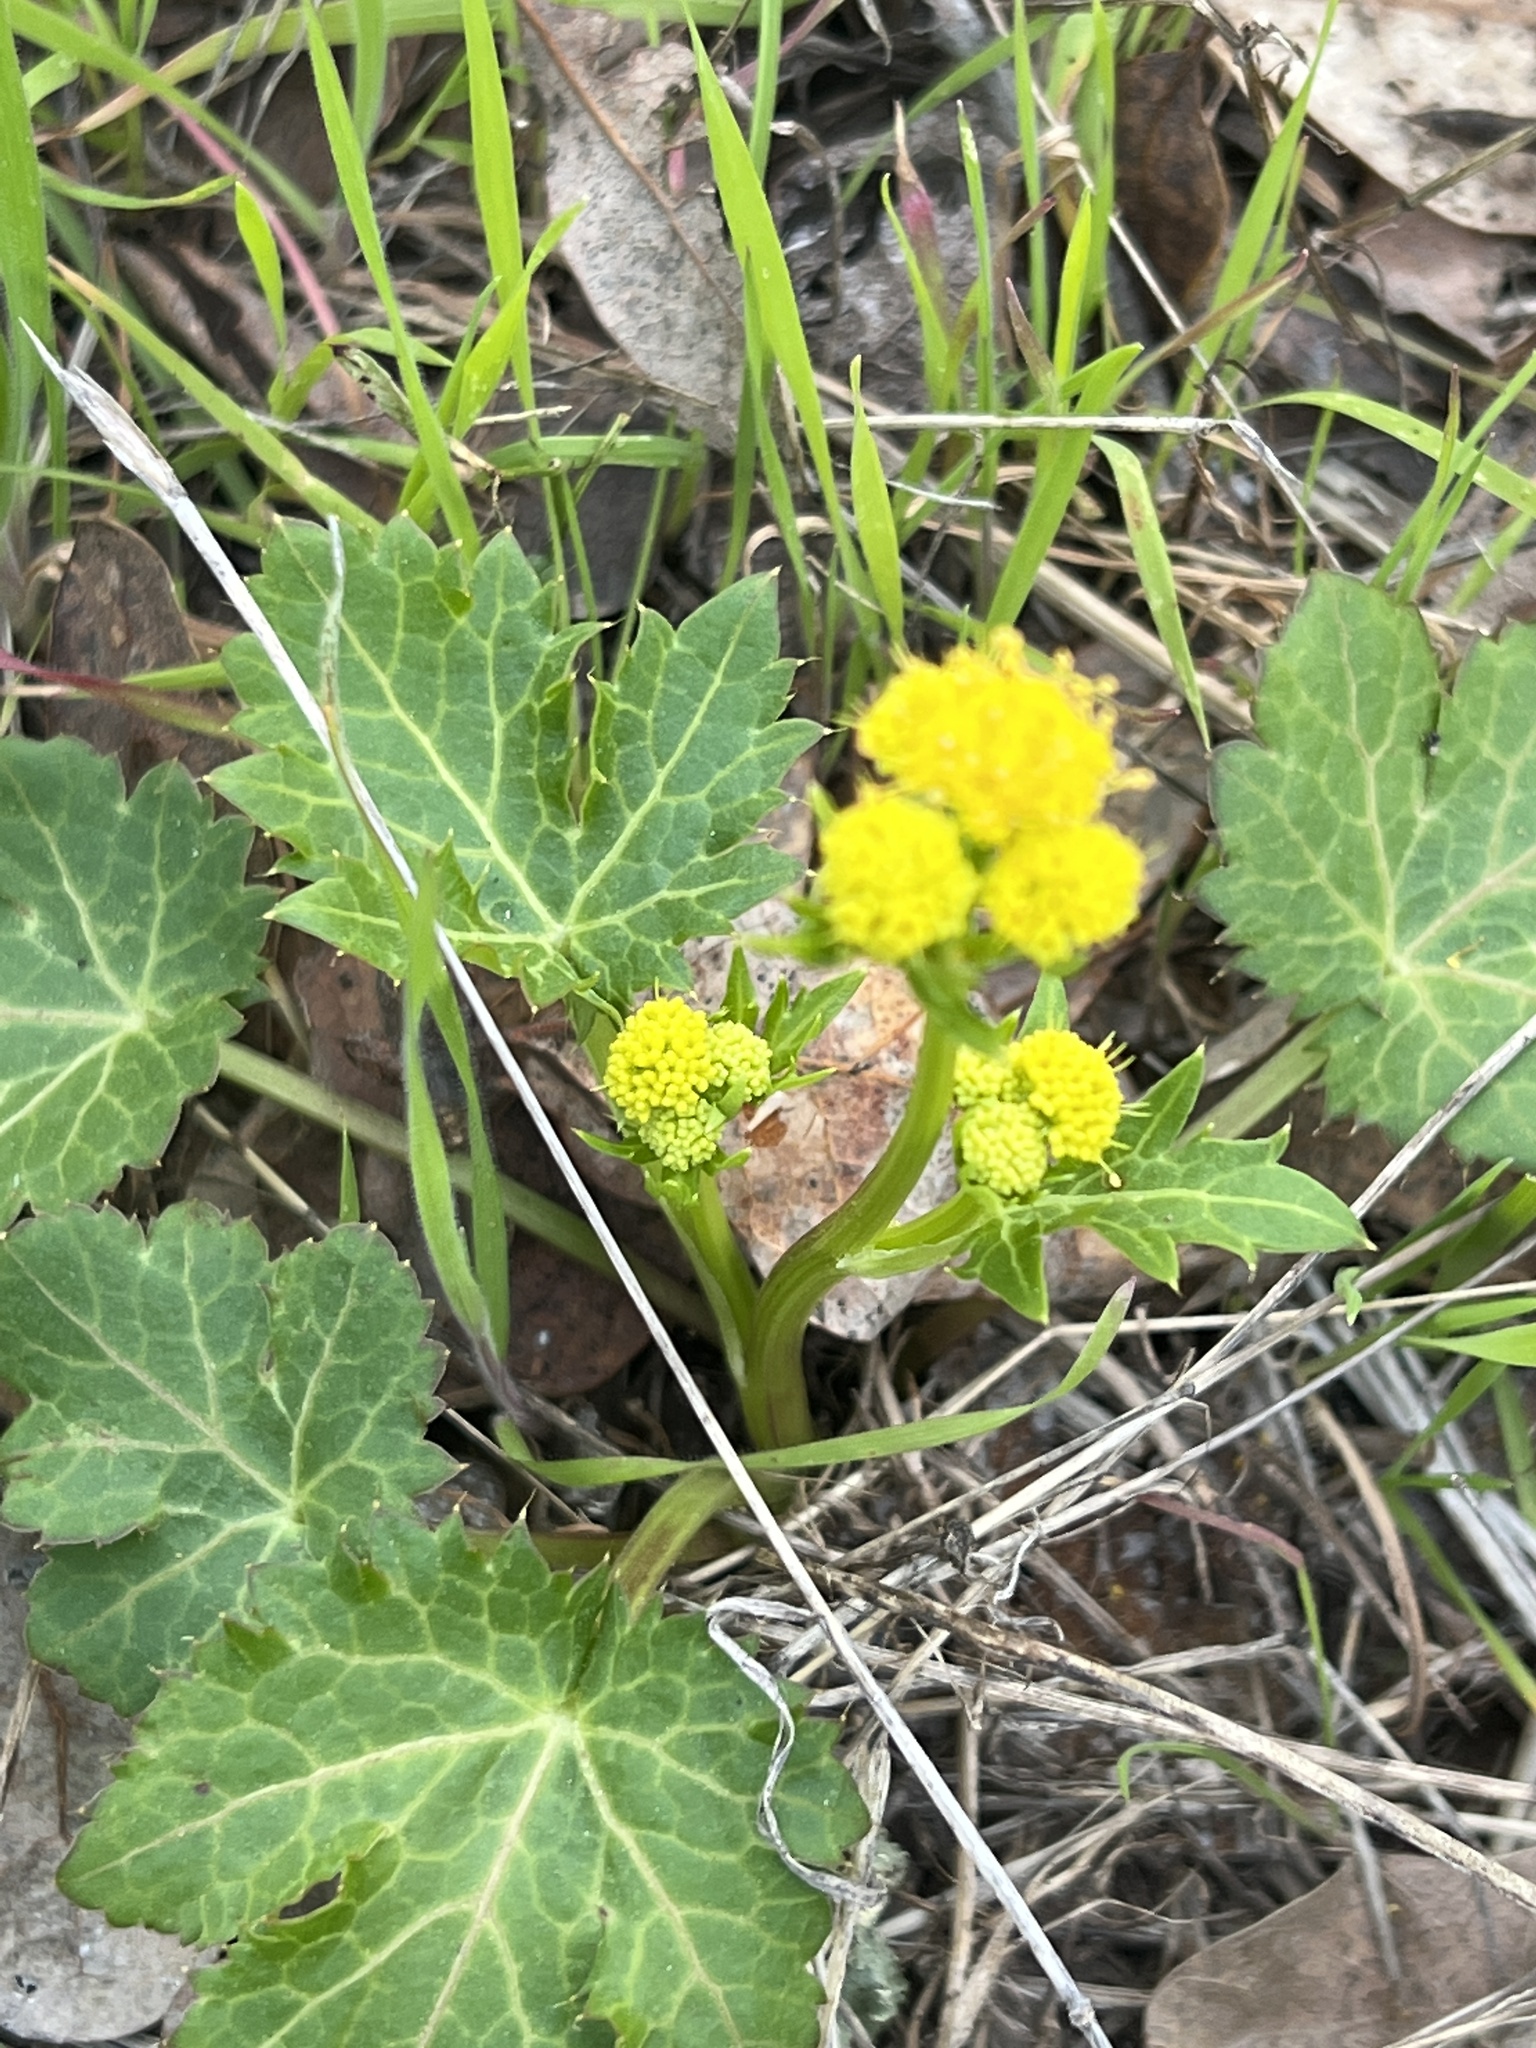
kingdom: Plantae
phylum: Tracheophyta
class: Magnoliopsida
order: Apiales
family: Apiaceae
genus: Sanicula
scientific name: Sanicula crassicaulis
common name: Western snakeroot
